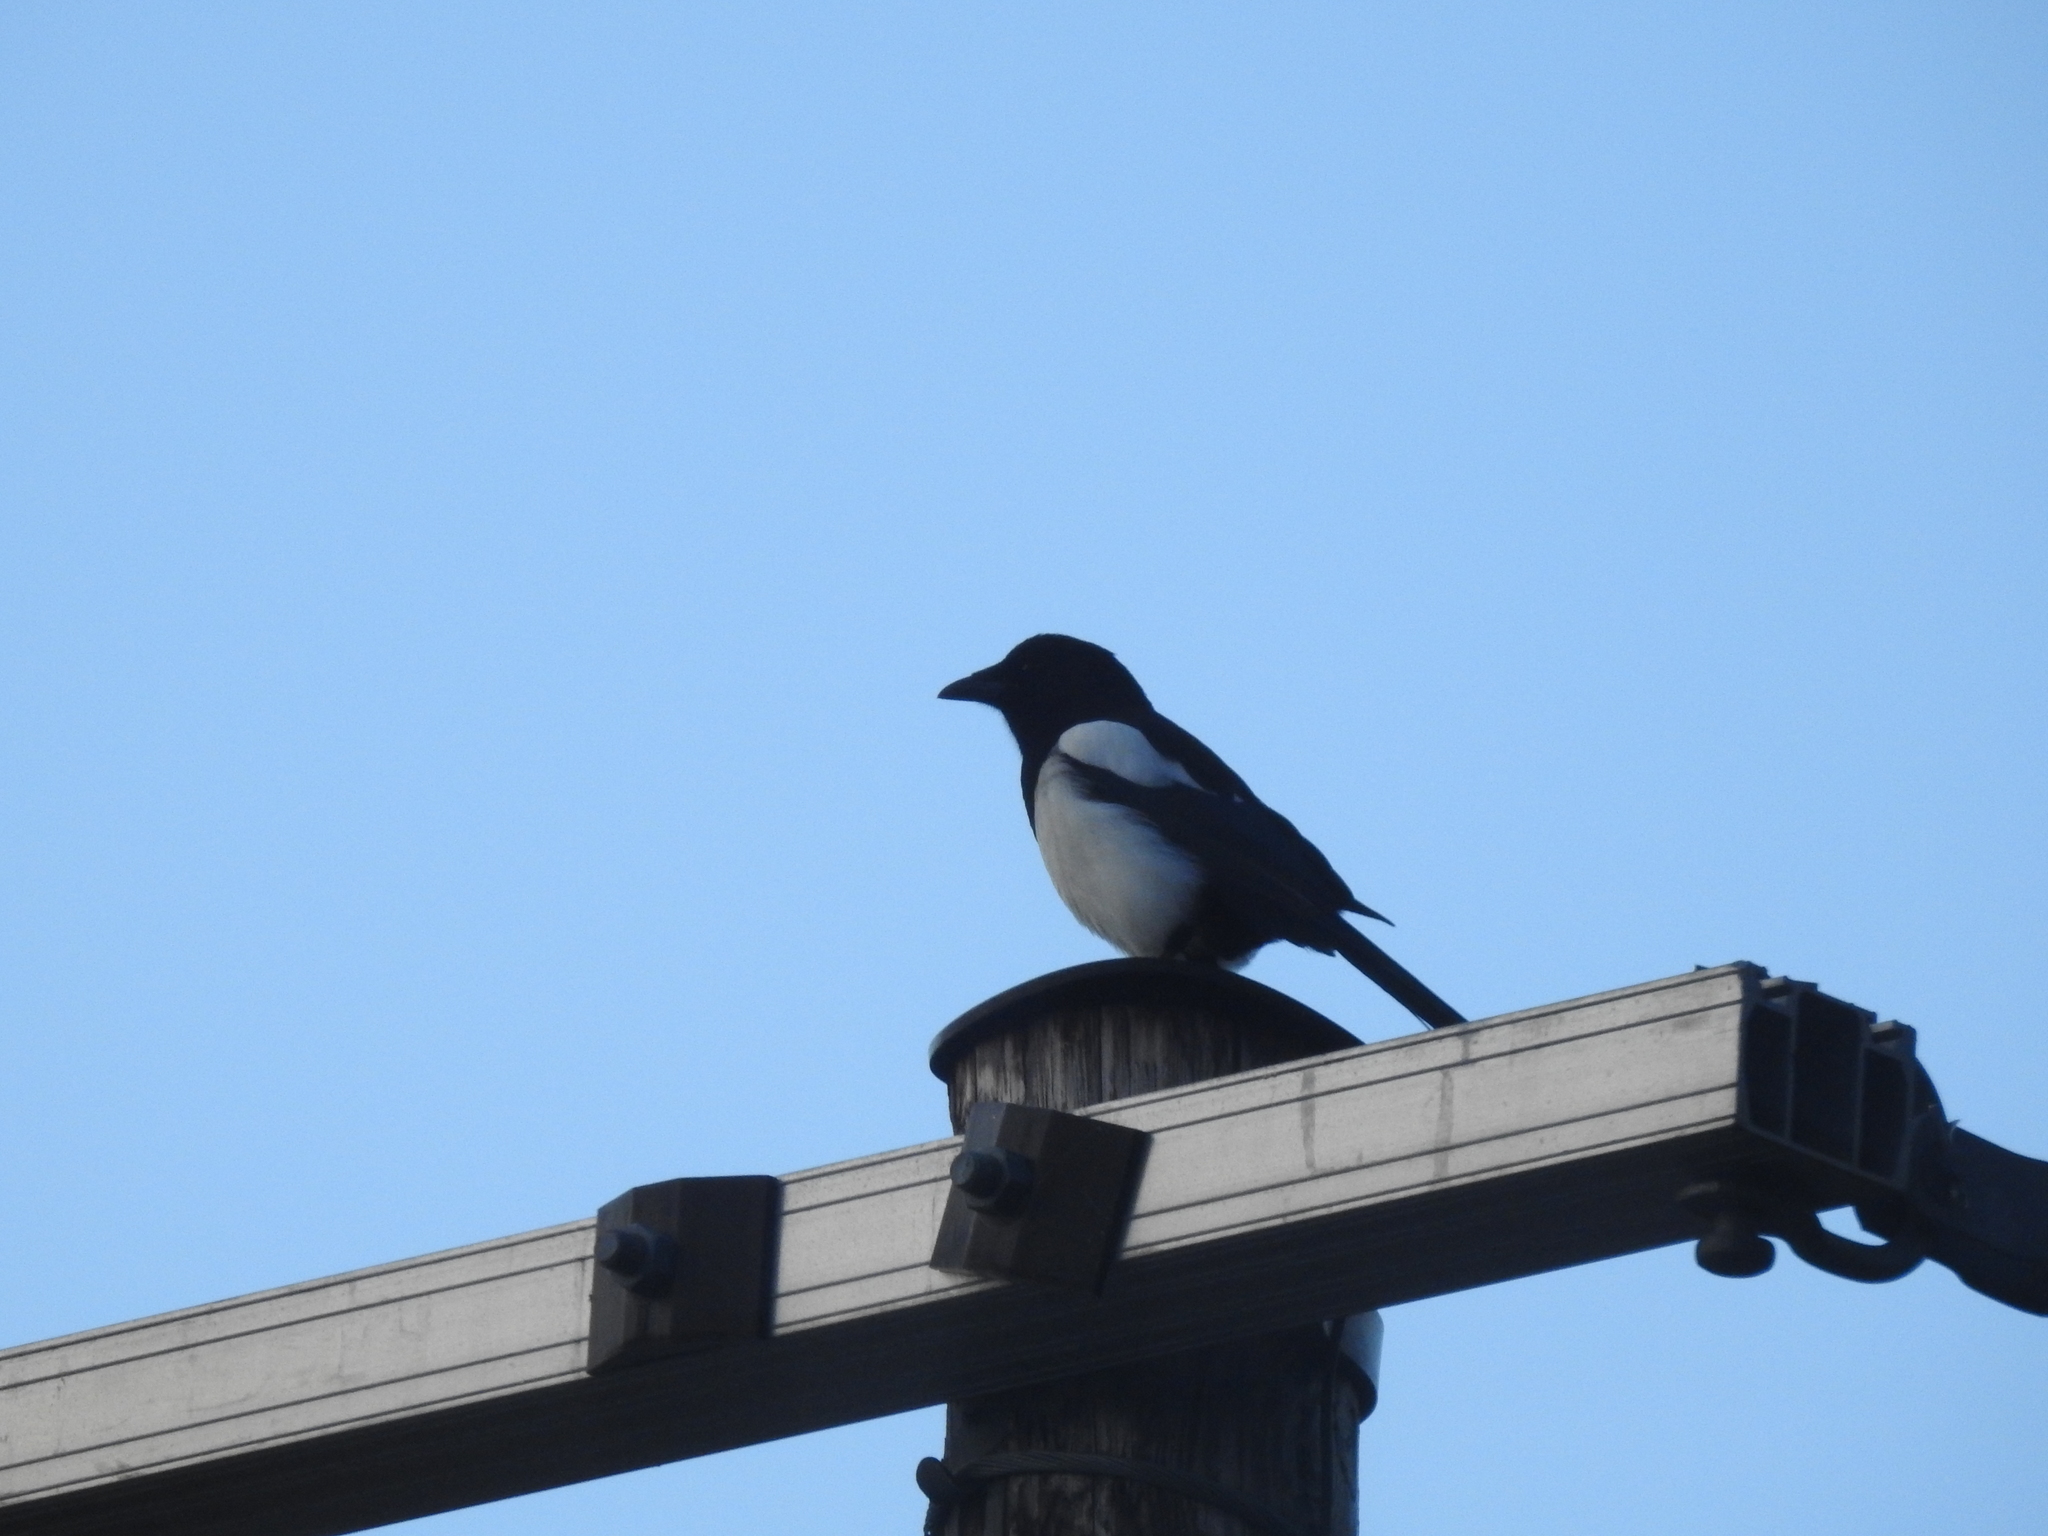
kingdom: Animalia
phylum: Chordata
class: Aves
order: Passeriformes
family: Corvidae
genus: Pica
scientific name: Pica pica
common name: Eurasian magpie
